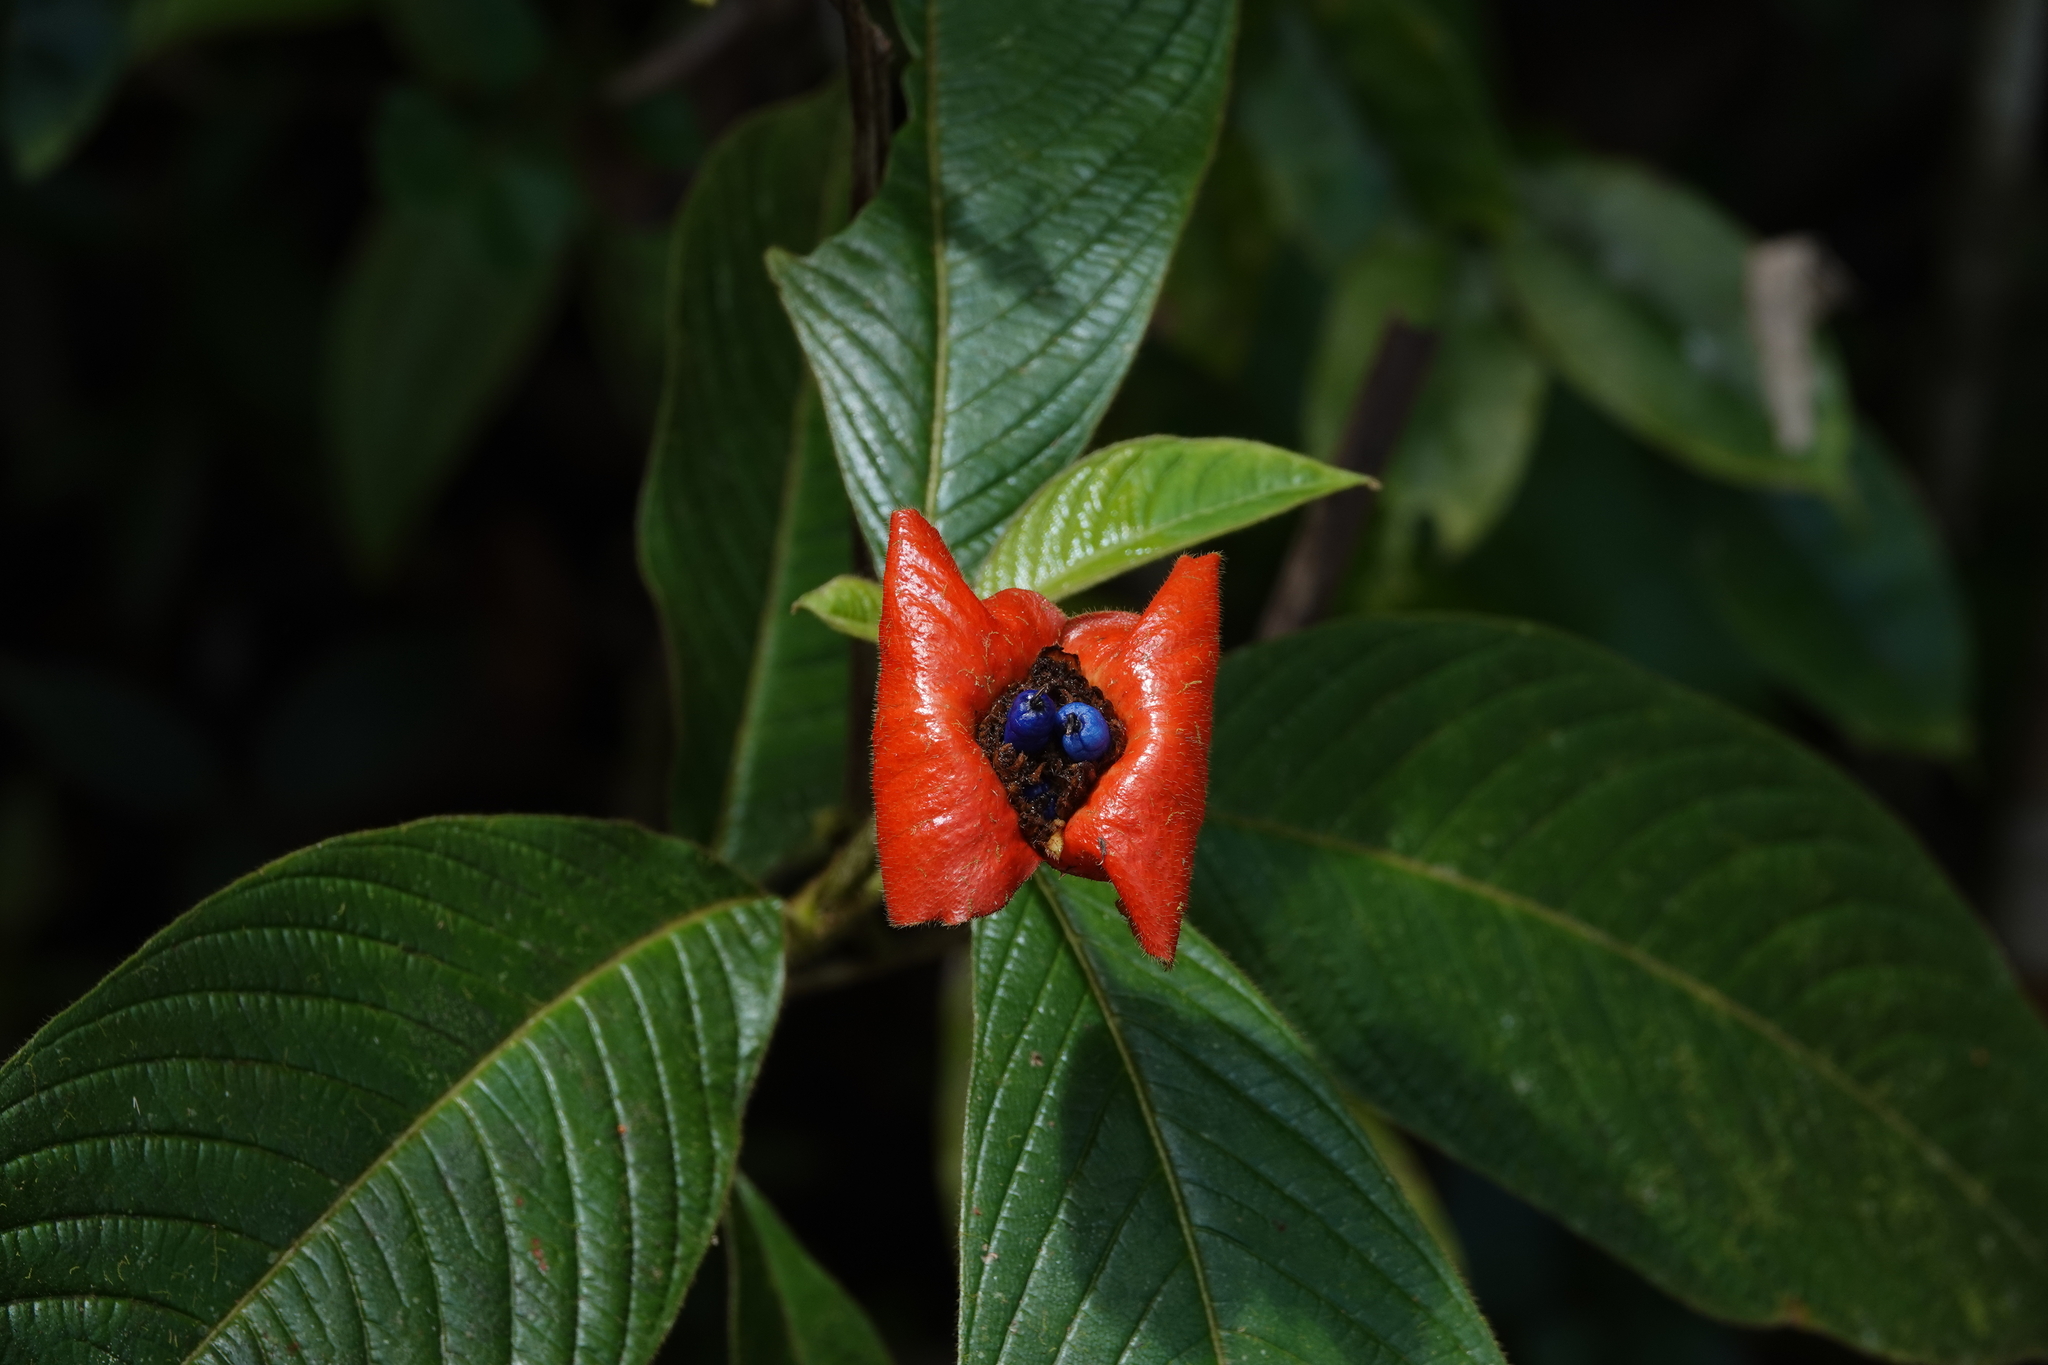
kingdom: Plantae
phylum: Tracheophyta
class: Magnoliopsida
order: Gentianales
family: Rubiaceae
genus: Palicourea
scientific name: Palicourea tomentosa
